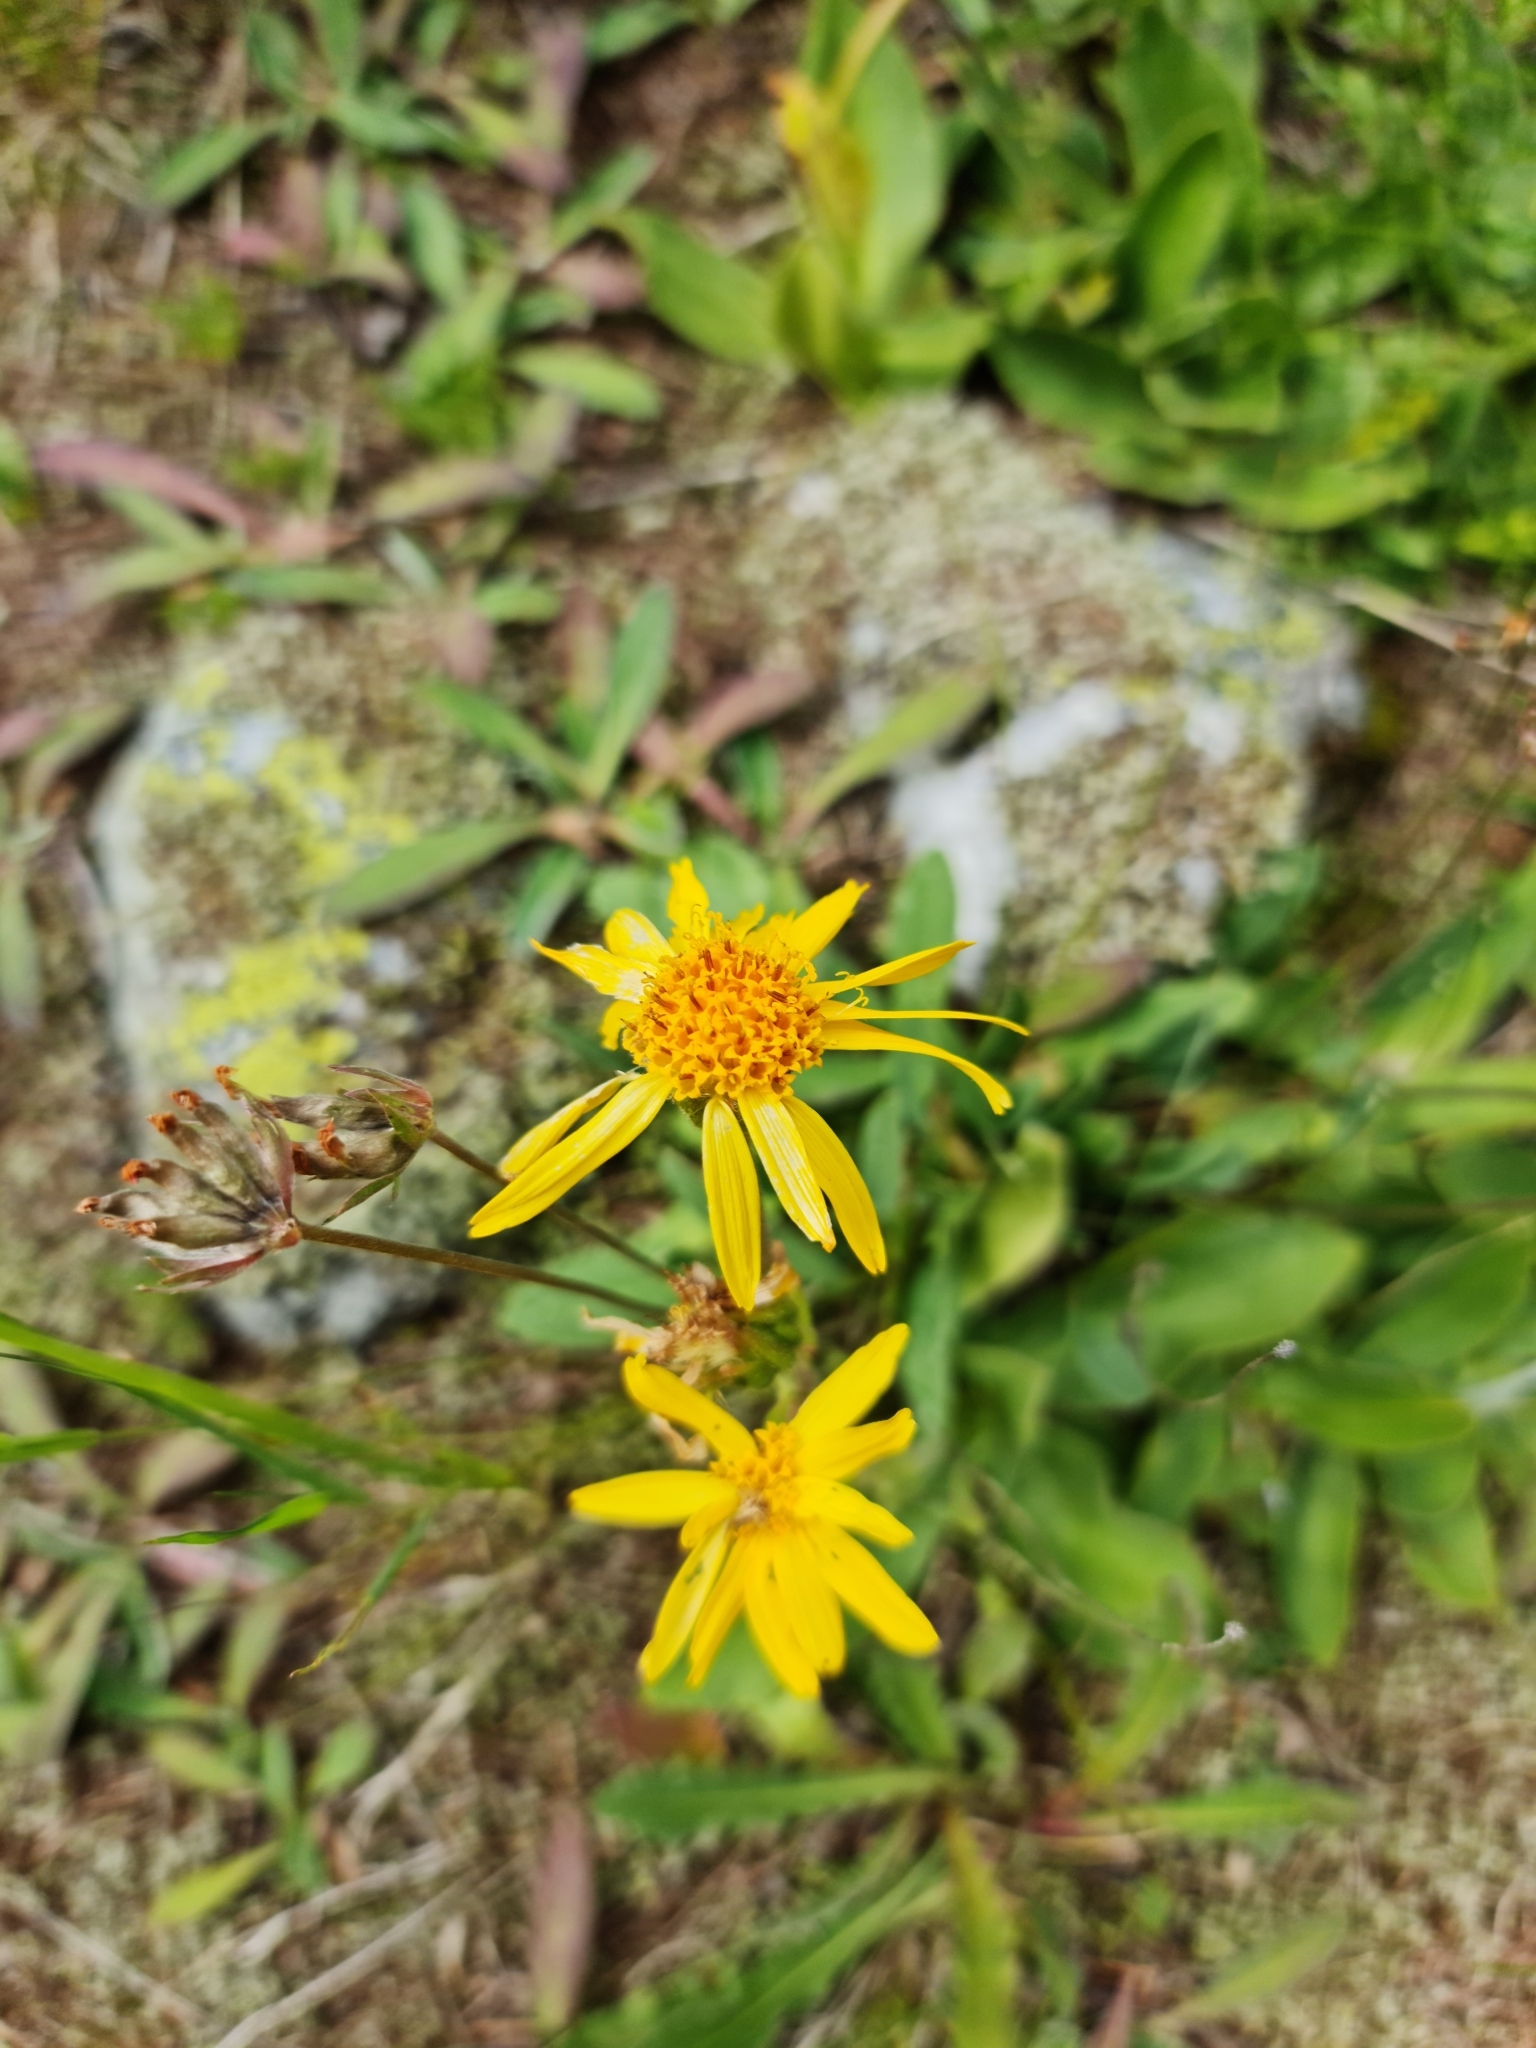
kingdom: Plantae
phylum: Tracheophyta
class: Magnoliopsida
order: Asterales
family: Asteraceae
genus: Arnica
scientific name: Arnica montana
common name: Leopard's bane
